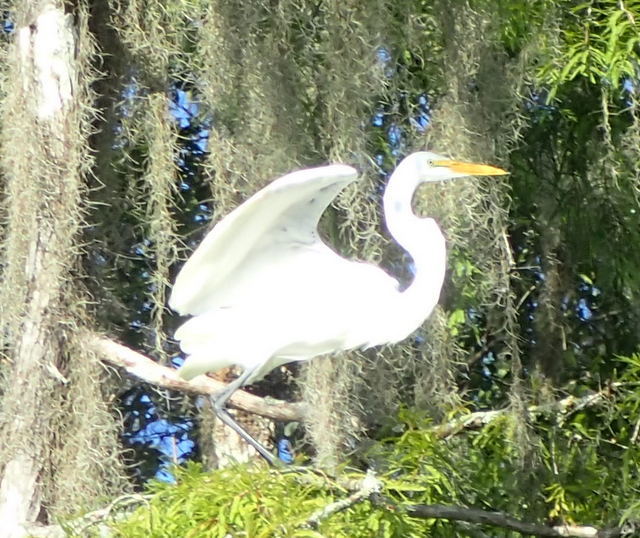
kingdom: Animalia
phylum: Chordata
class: Aves
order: Pelecaniformes
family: Ardeidae
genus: Ardea
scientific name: Ardea alba
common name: Great egret
